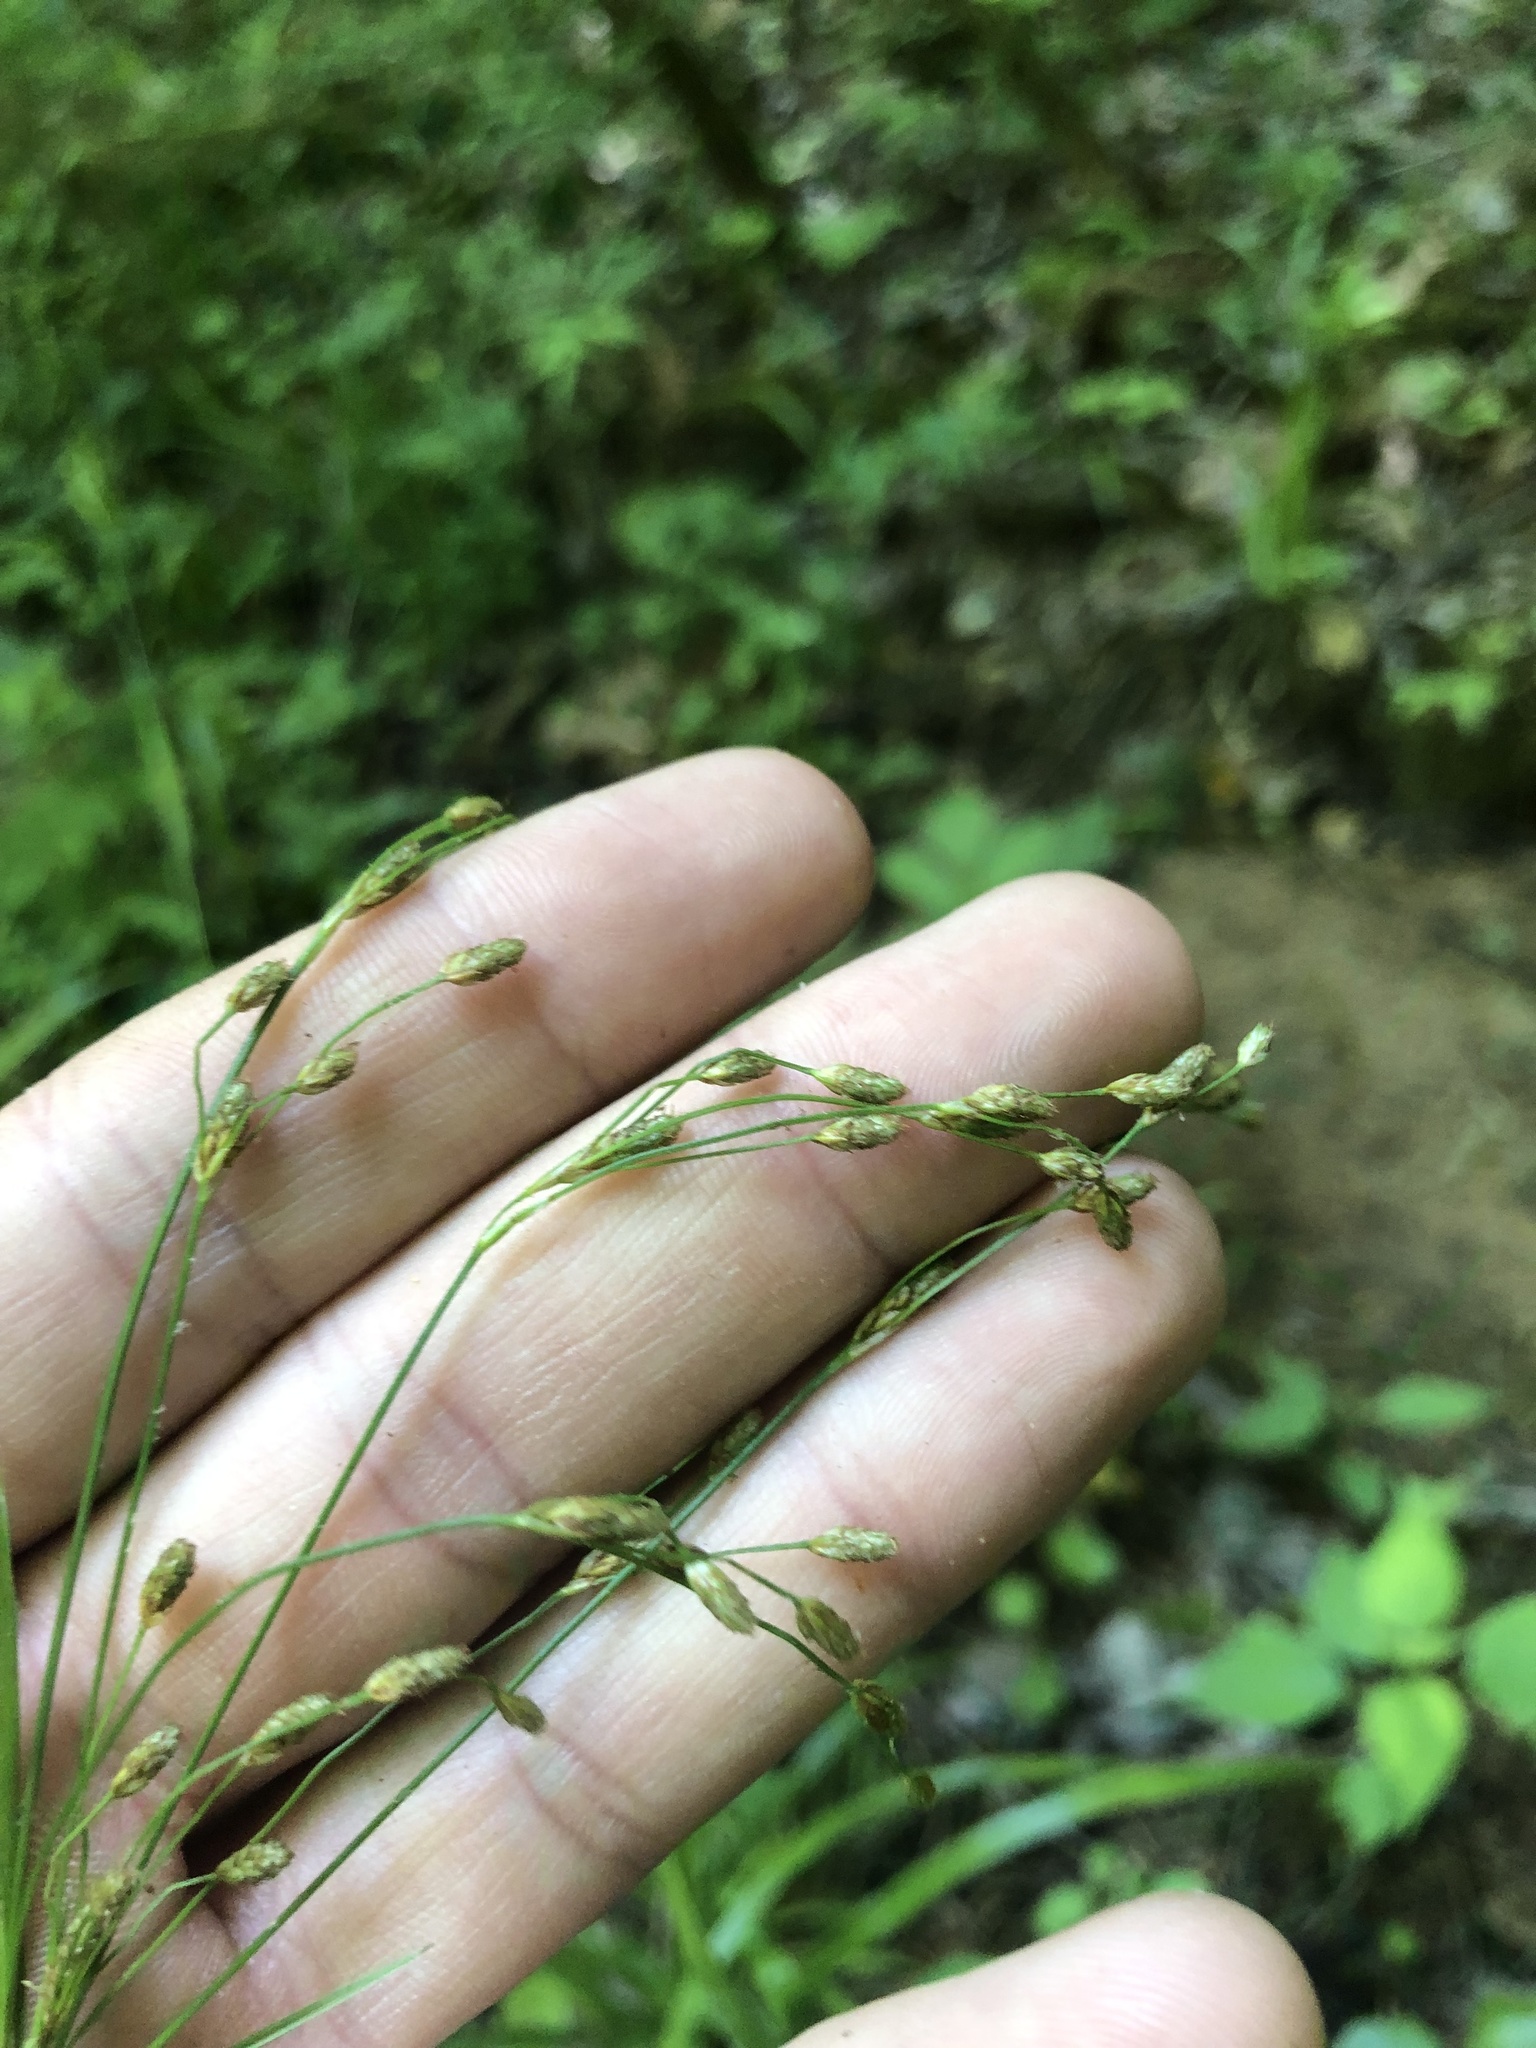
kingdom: Plantae
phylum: Tracheophyta
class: Liliopsida
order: Poales
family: Cyperaceae
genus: Scirpus
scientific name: Scirpus lineatus
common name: Drooping bulrush
